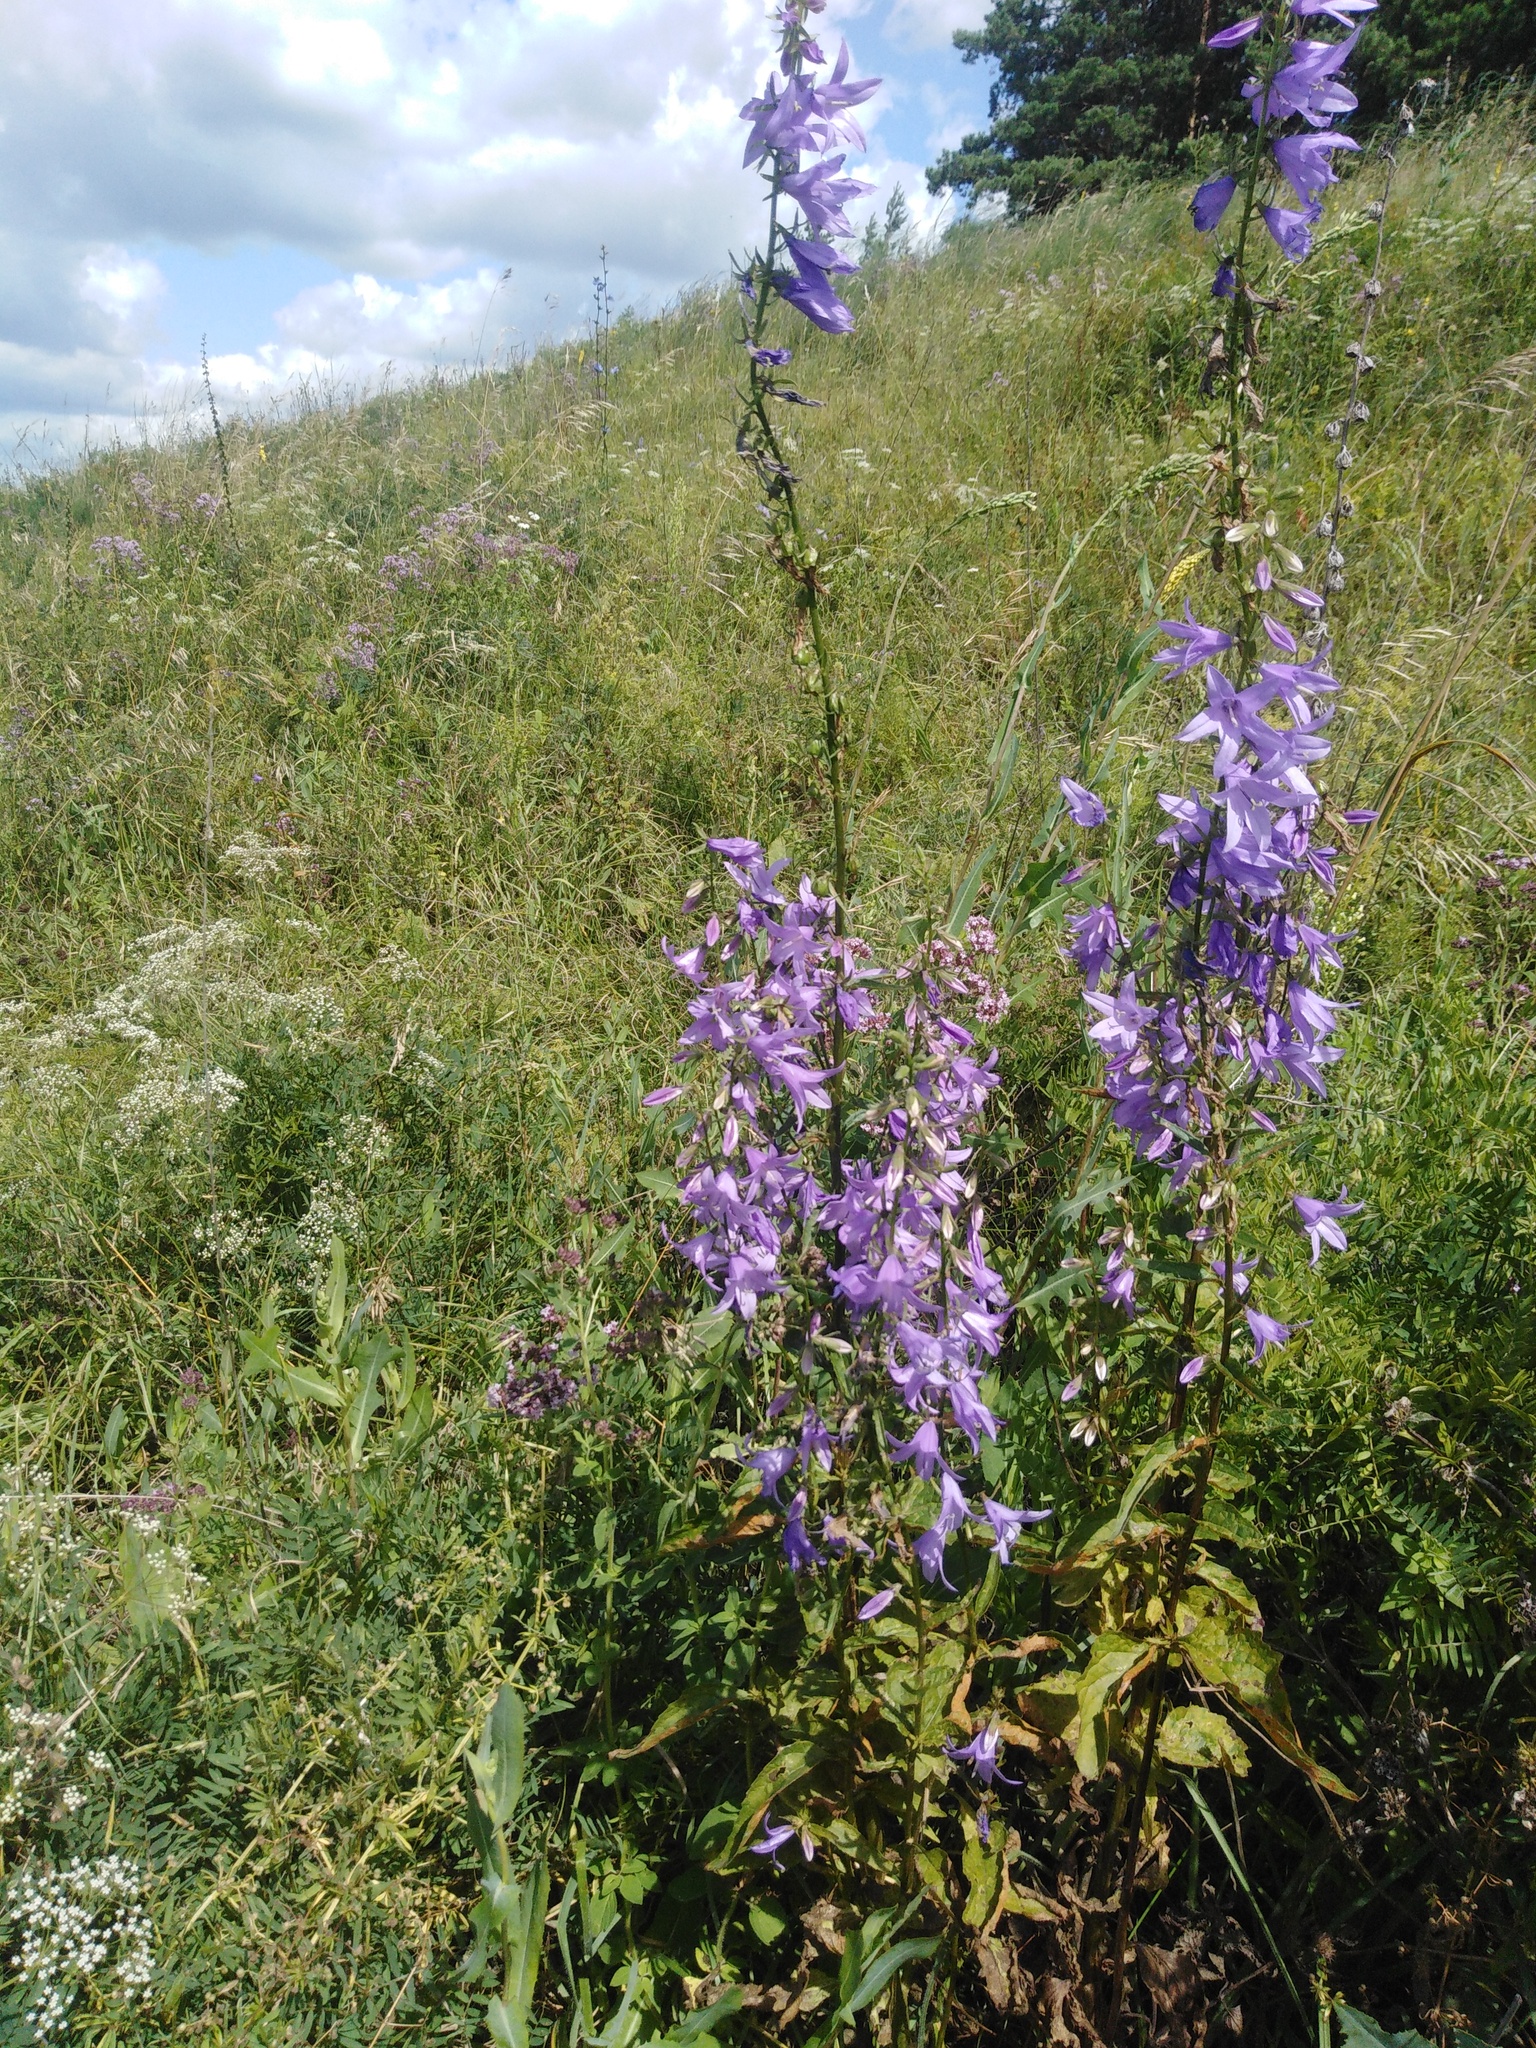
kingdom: Plantae
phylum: Tracheophyta
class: Magnoliopsida
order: Asterales
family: Campanulaceae
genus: Campanula
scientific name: Campanula rapunculoides
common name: Creeping bellflower
